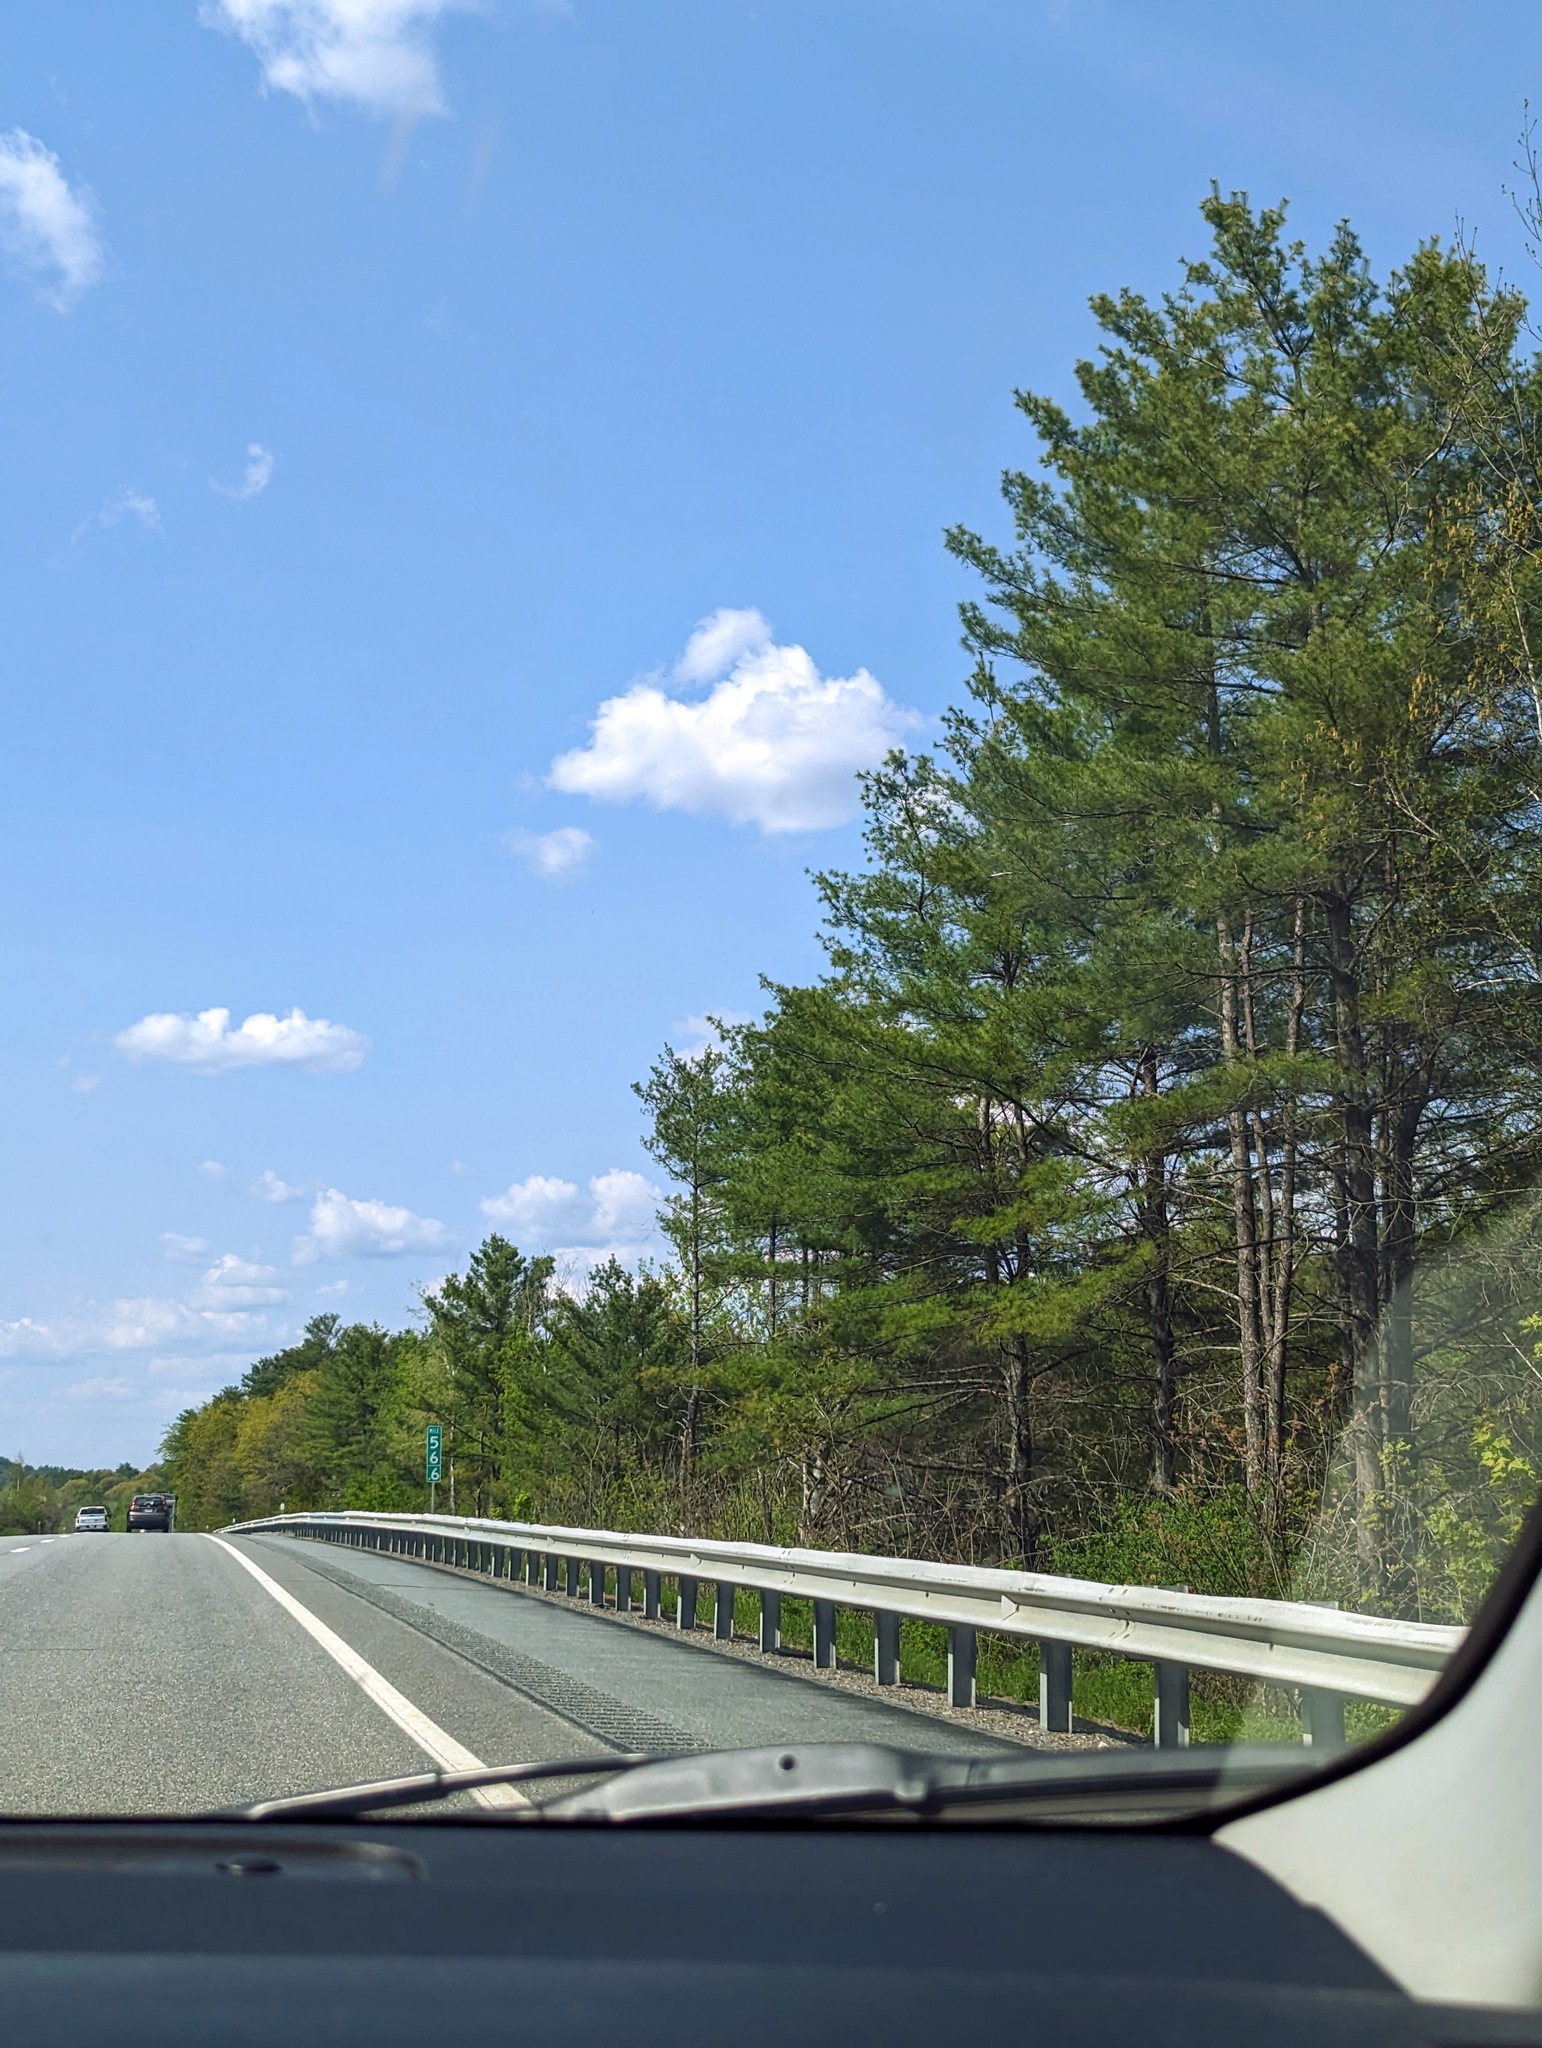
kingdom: Plantae
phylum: Tracheophyta
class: Pinopsida
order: Pinales
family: Pinaceae
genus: Pinus
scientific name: Pinus strobus
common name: Weymouth pine
